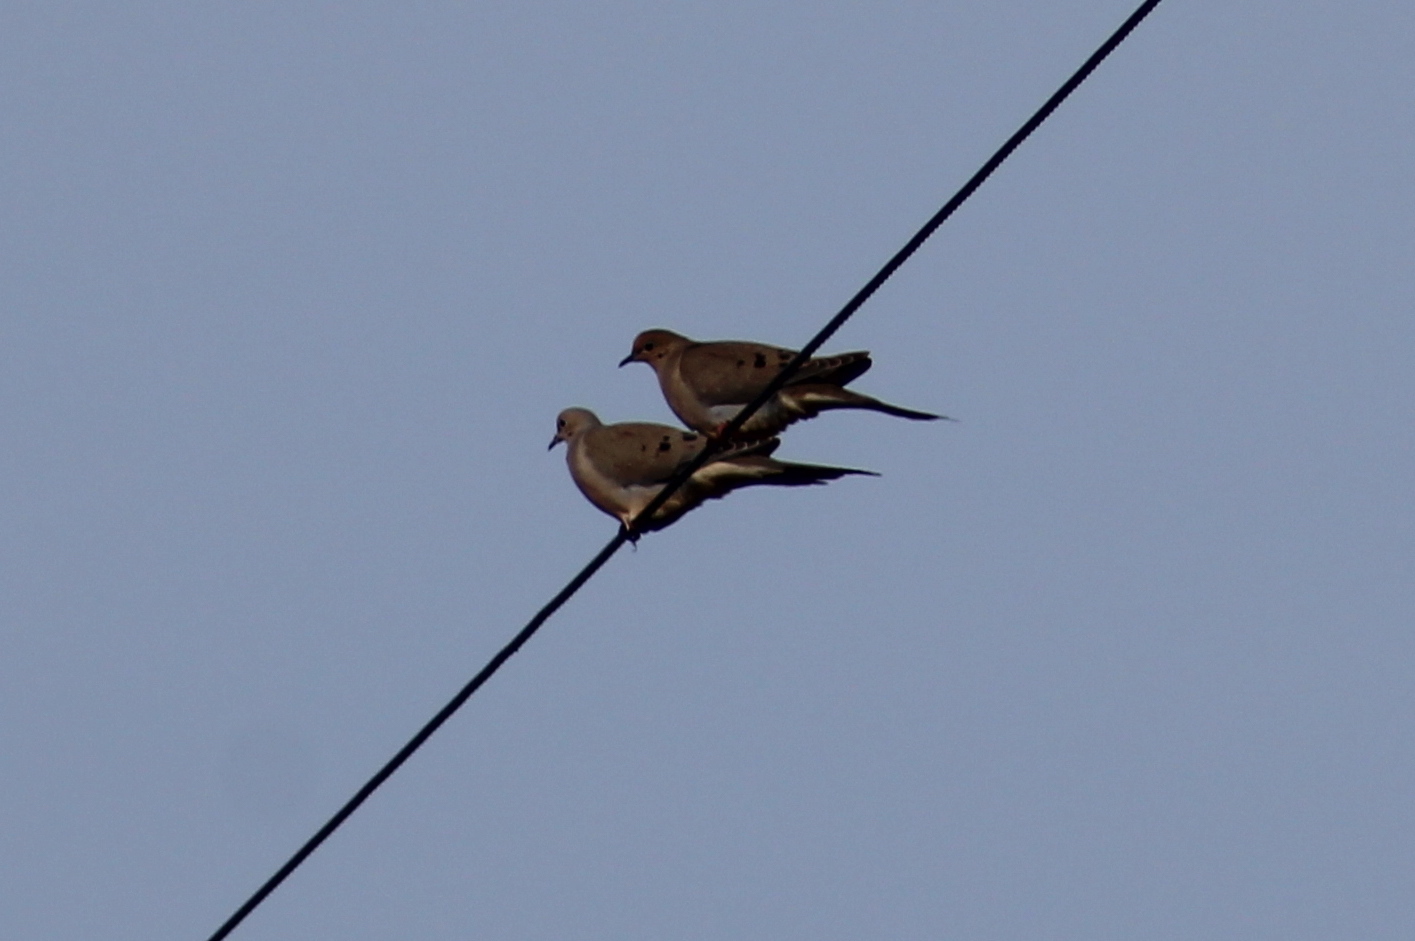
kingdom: Animalia
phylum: Chordata
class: Aves
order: Columbiformes
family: Columbidae
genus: Zenaida
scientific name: Zenaida macroura
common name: Mourning dove
